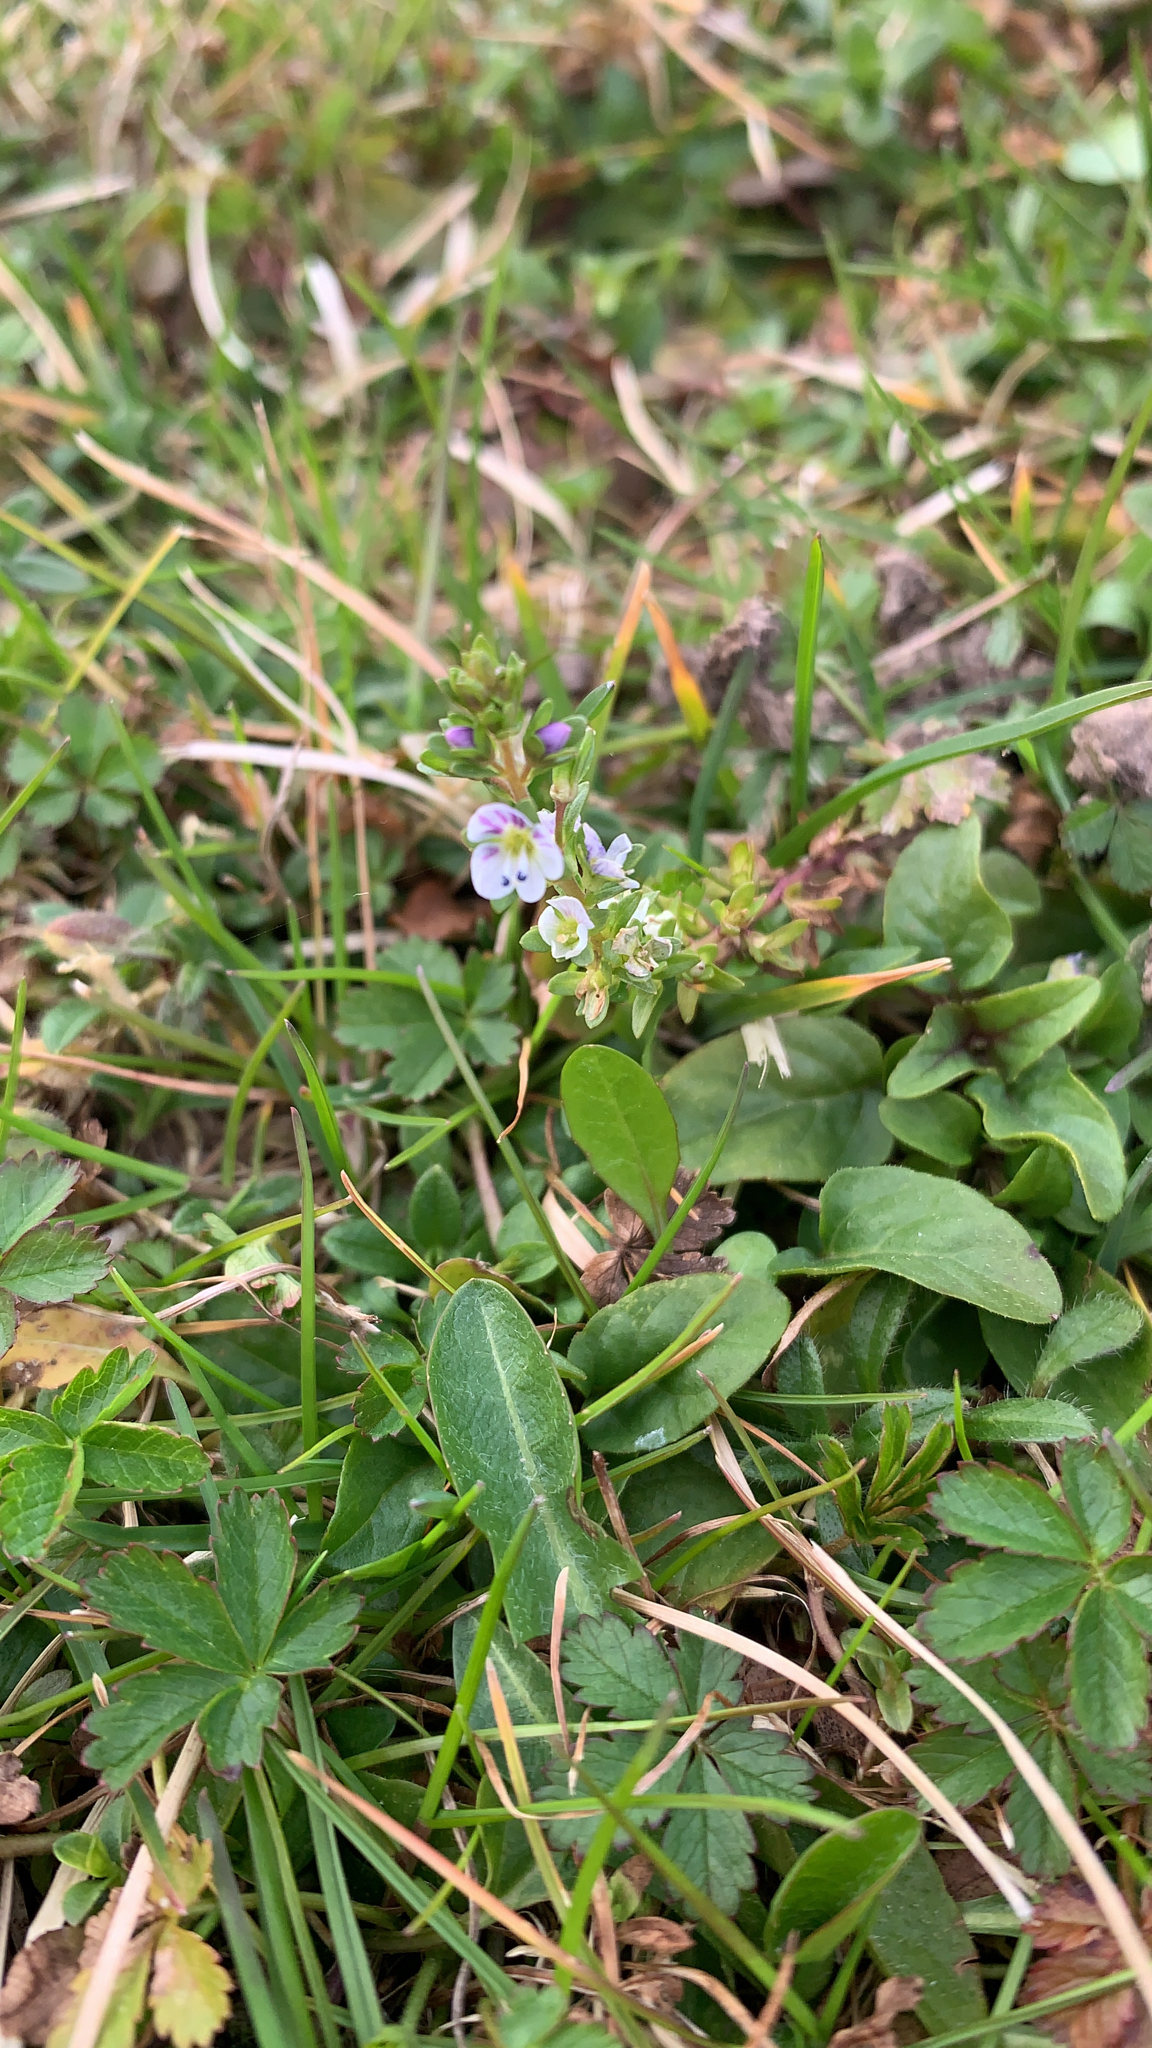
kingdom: Plantae
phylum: Tracheophyta
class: Magnoliopsida
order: Lamiales
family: Plantaginaceae
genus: Veronica
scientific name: Veronica serpyllifolia
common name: Thyme-leaved speedwell
